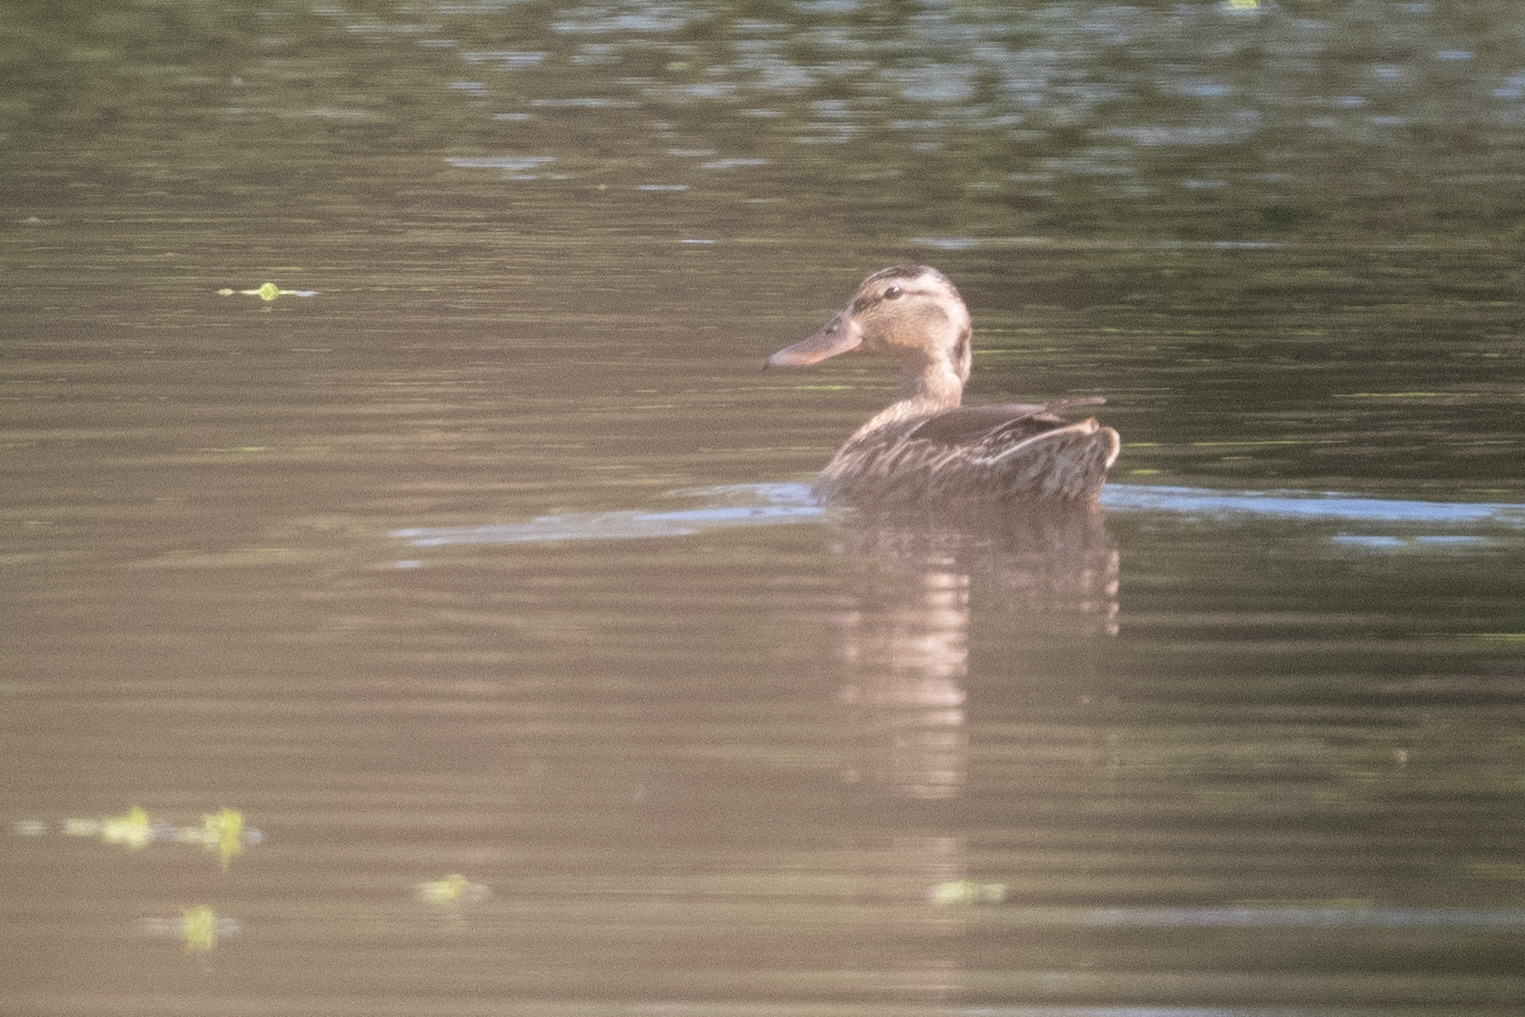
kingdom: Animalia
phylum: Chordata
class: Aves
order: Anseriformes
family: Anatidae
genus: Anas
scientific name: Anas platyrhynchos
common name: Mallard
